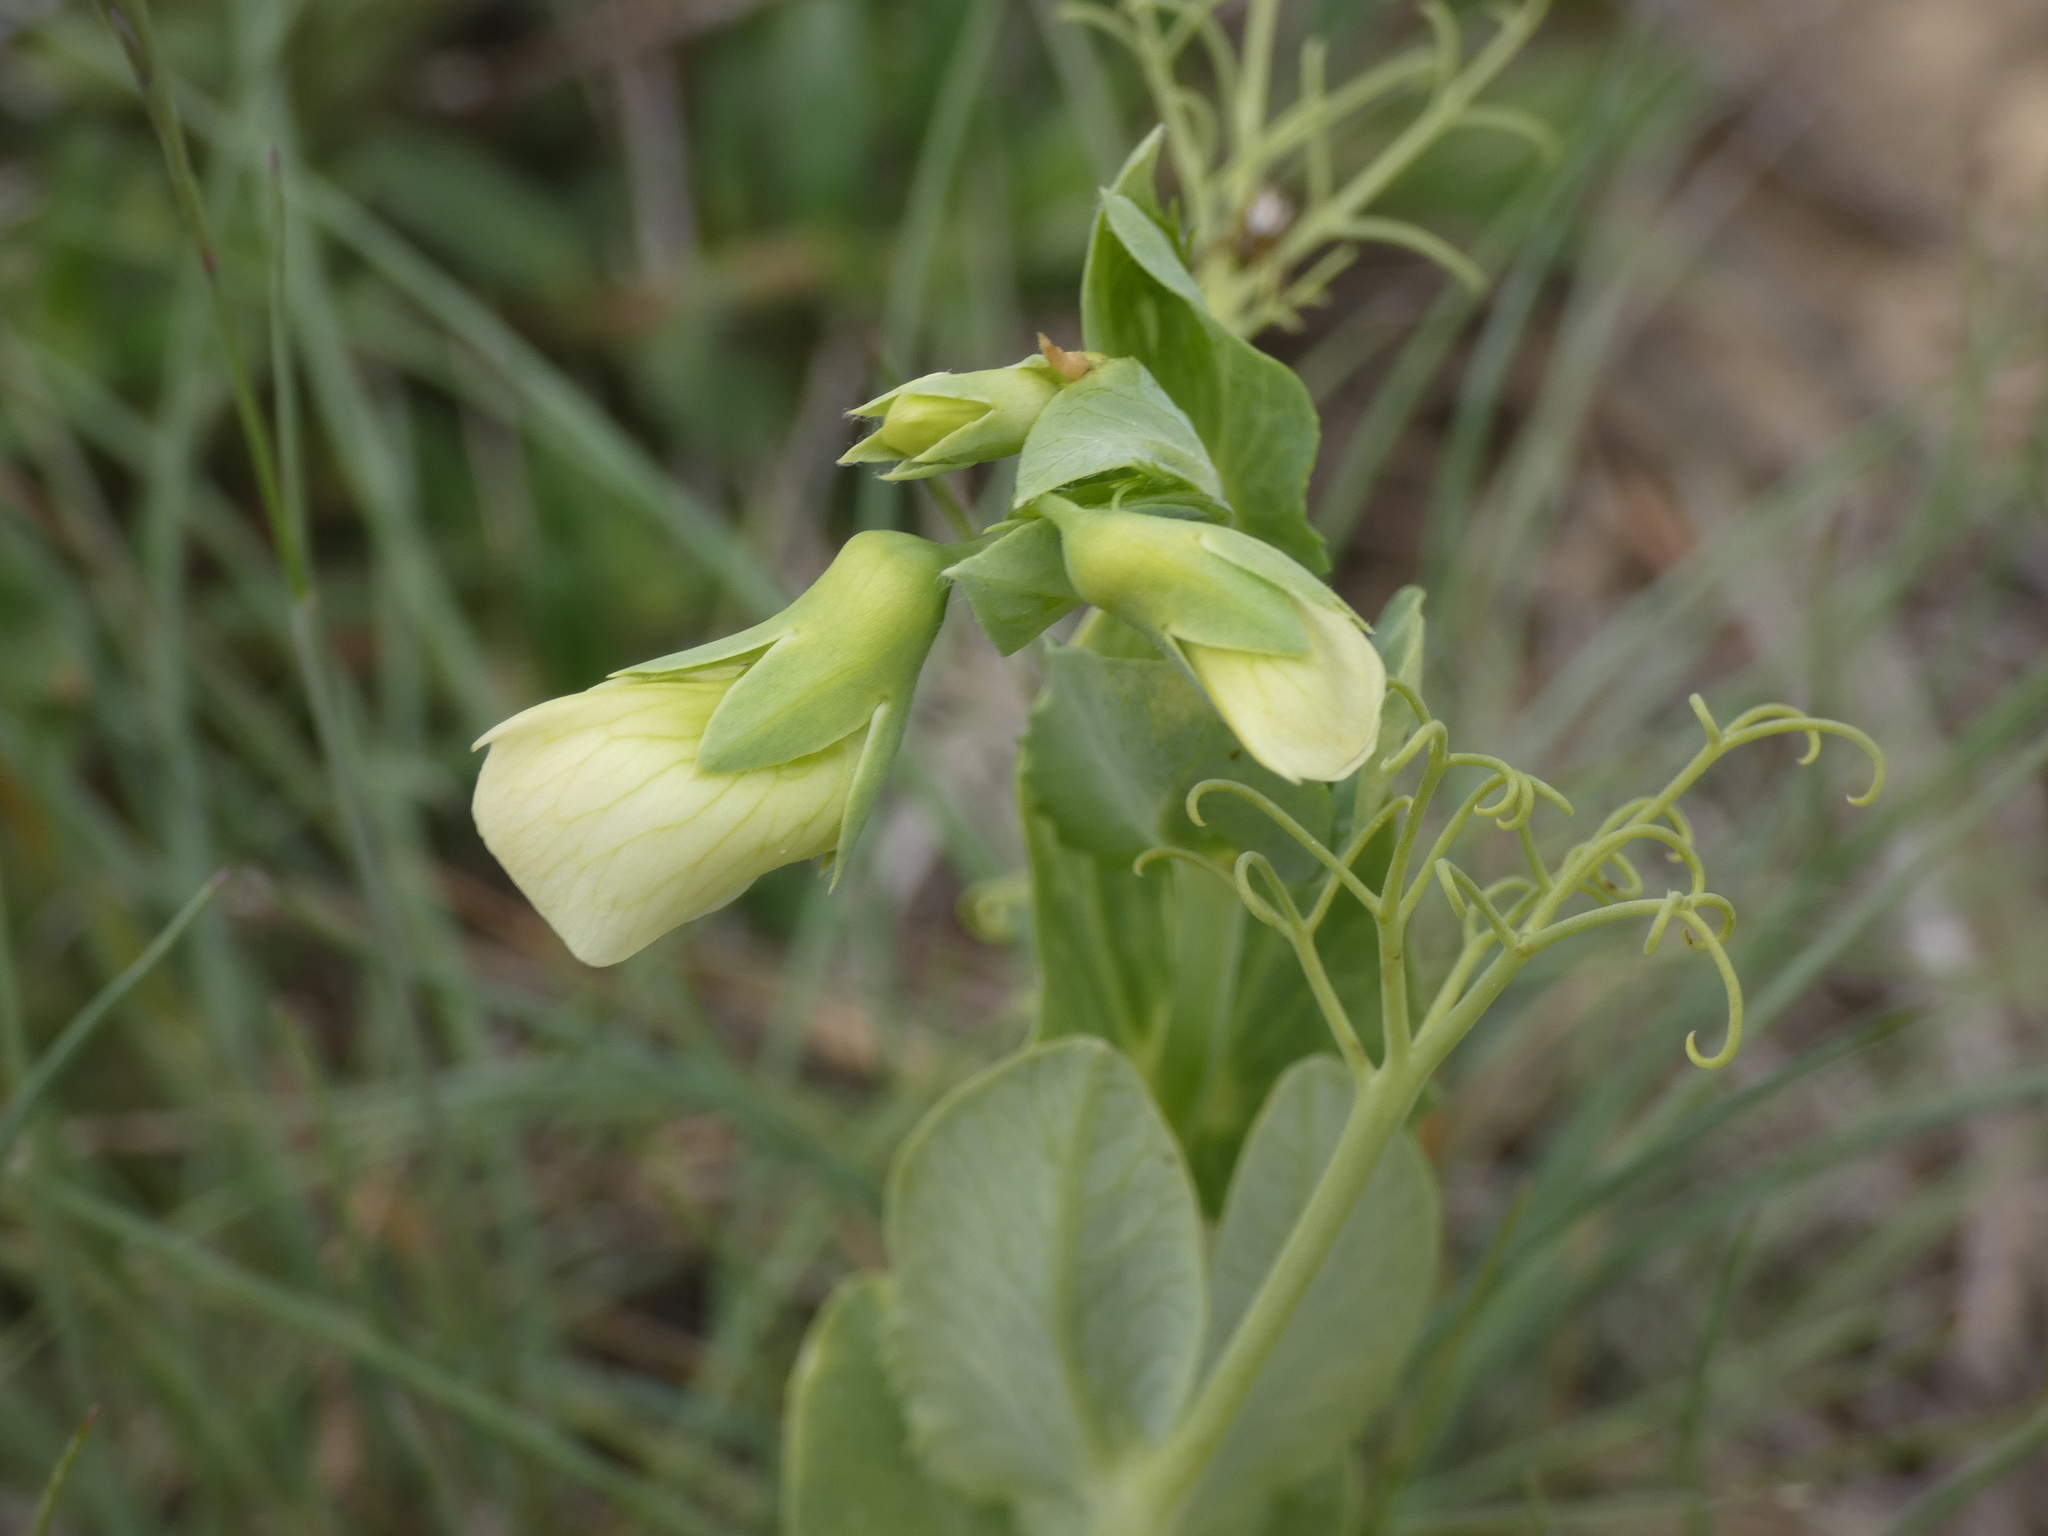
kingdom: Plantae
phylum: Tracheophyta
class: Magnoliopsida
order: Fabales
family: Fabaceae
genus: Lathyrus
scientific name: Lathyrus oleraceus
